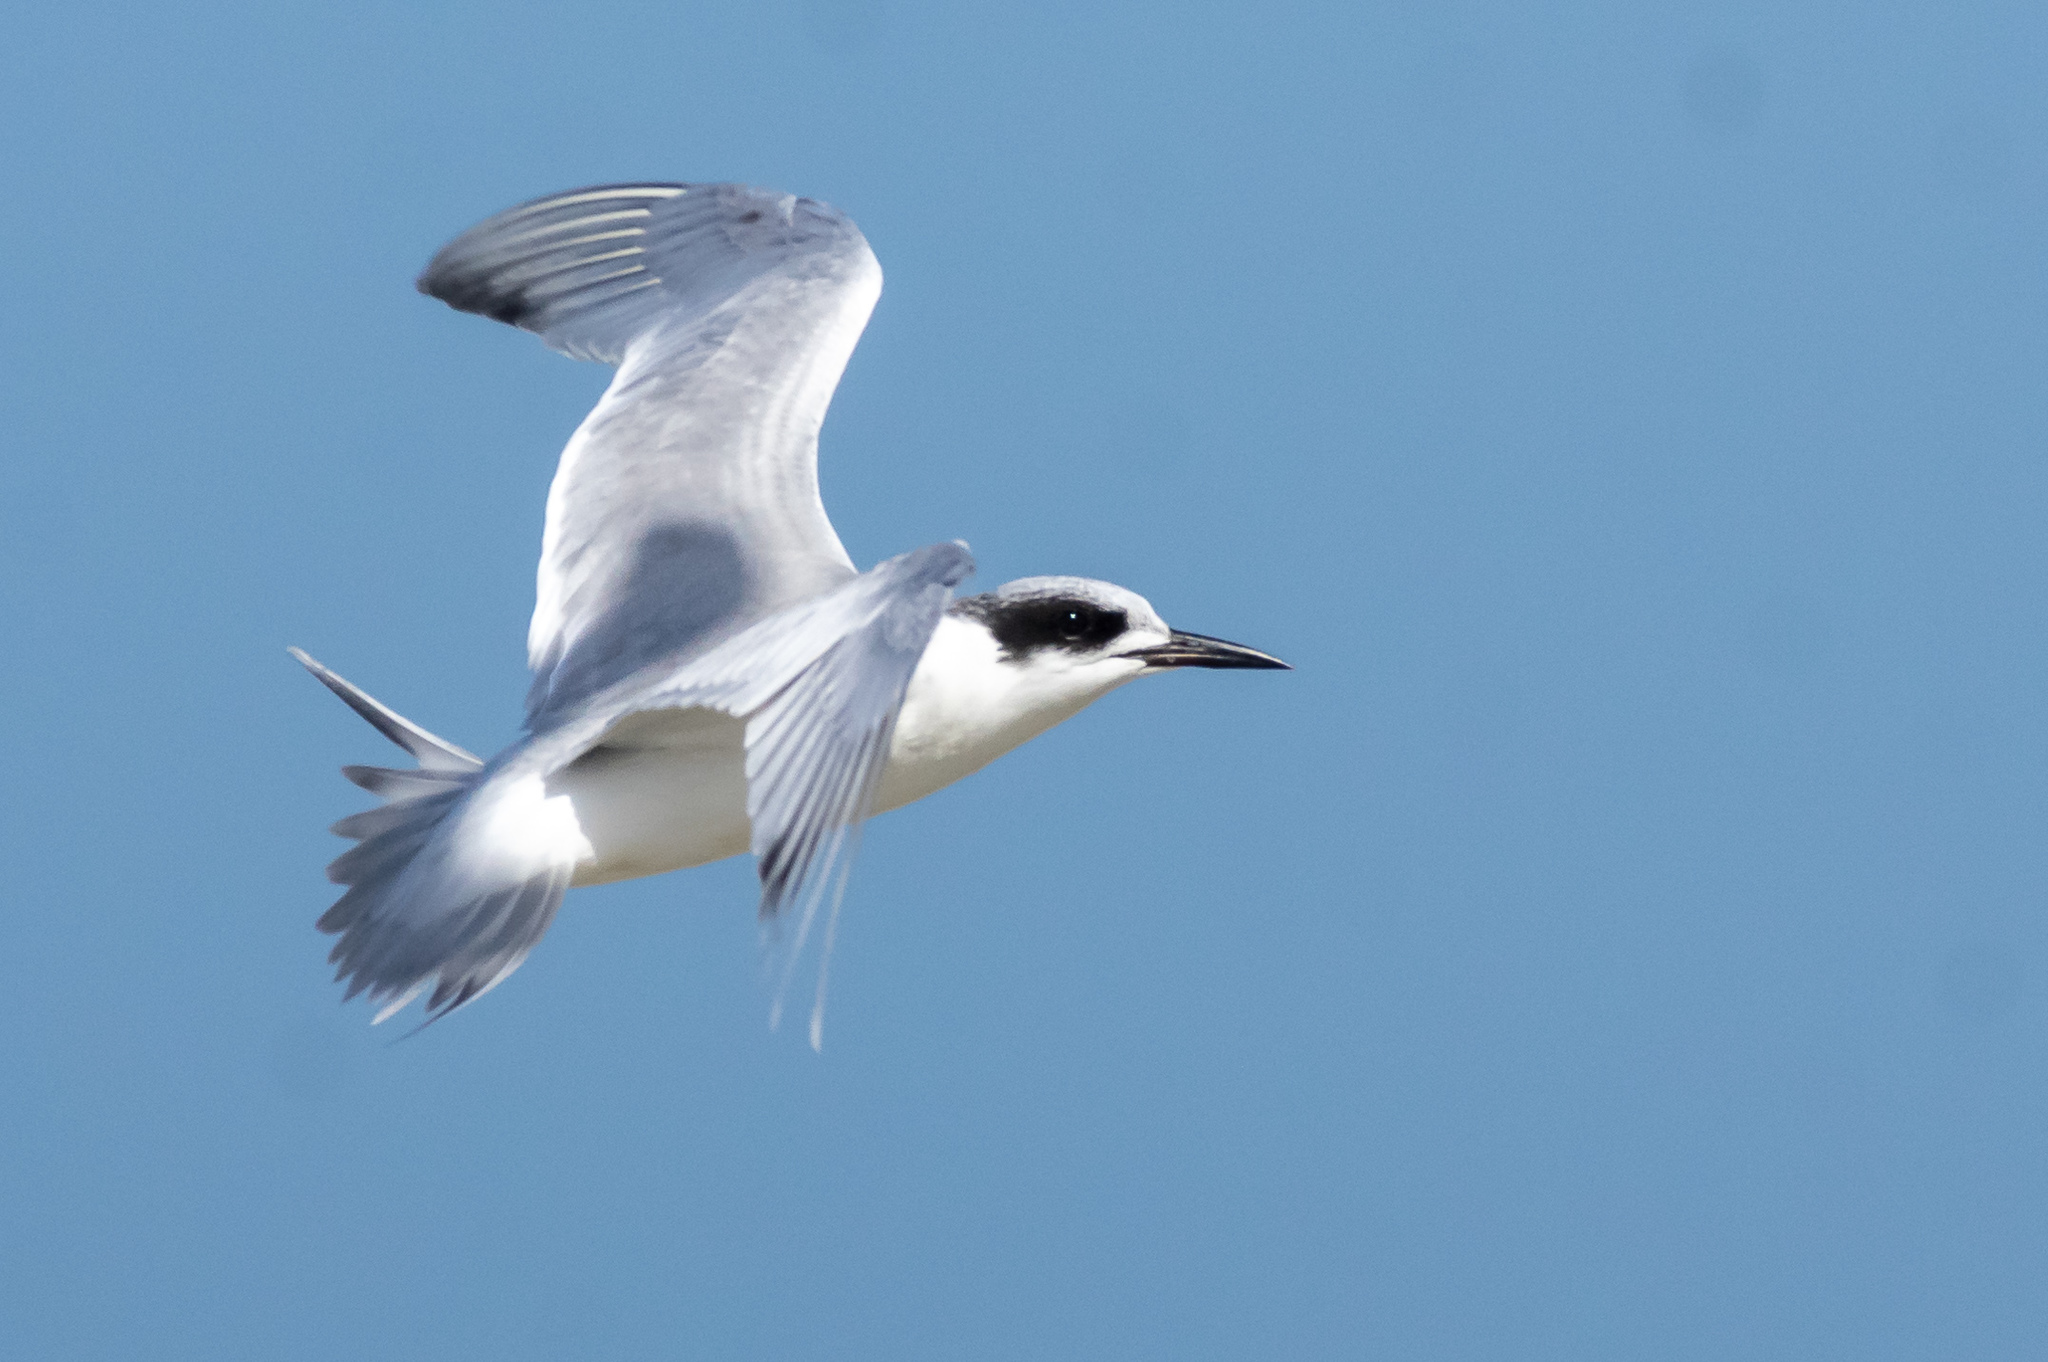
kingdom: Animalia
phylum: Chordata
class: Aves
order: Charadriiformes
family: Laridae
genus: Sterna
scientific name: Sterna forsteri
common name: Forster's tern
